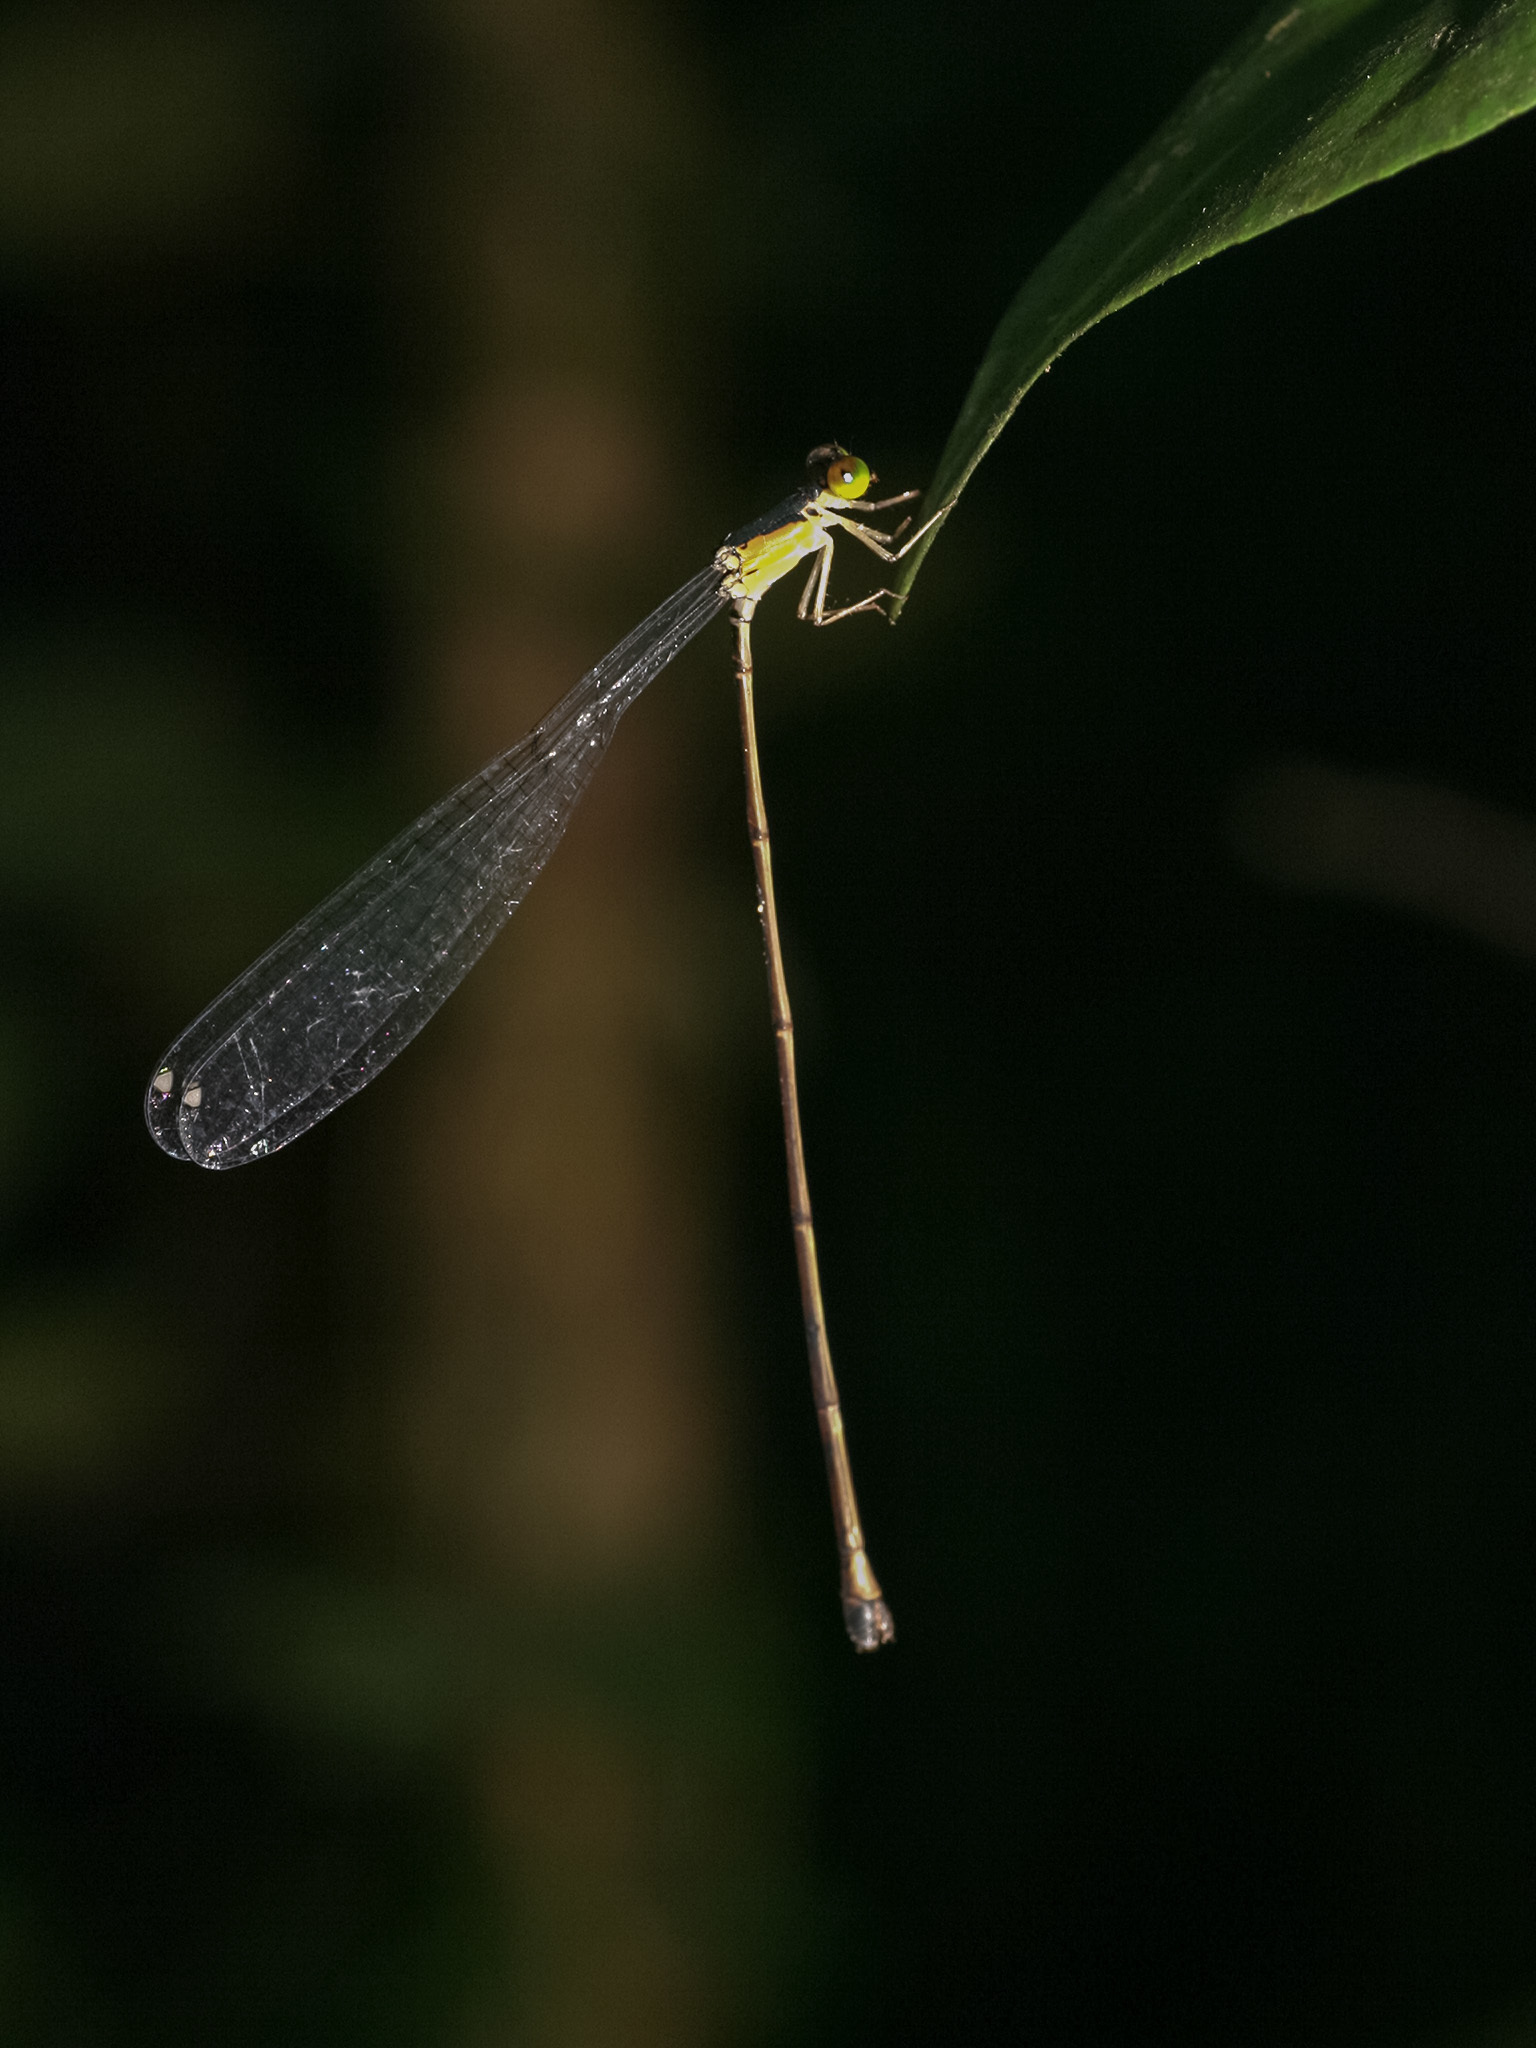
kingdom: Animalia
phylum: Arthropoda
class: Insecta
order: Odonata
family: Coenagrionidae
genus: Pericnemis
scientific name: Pericnemis stictica
